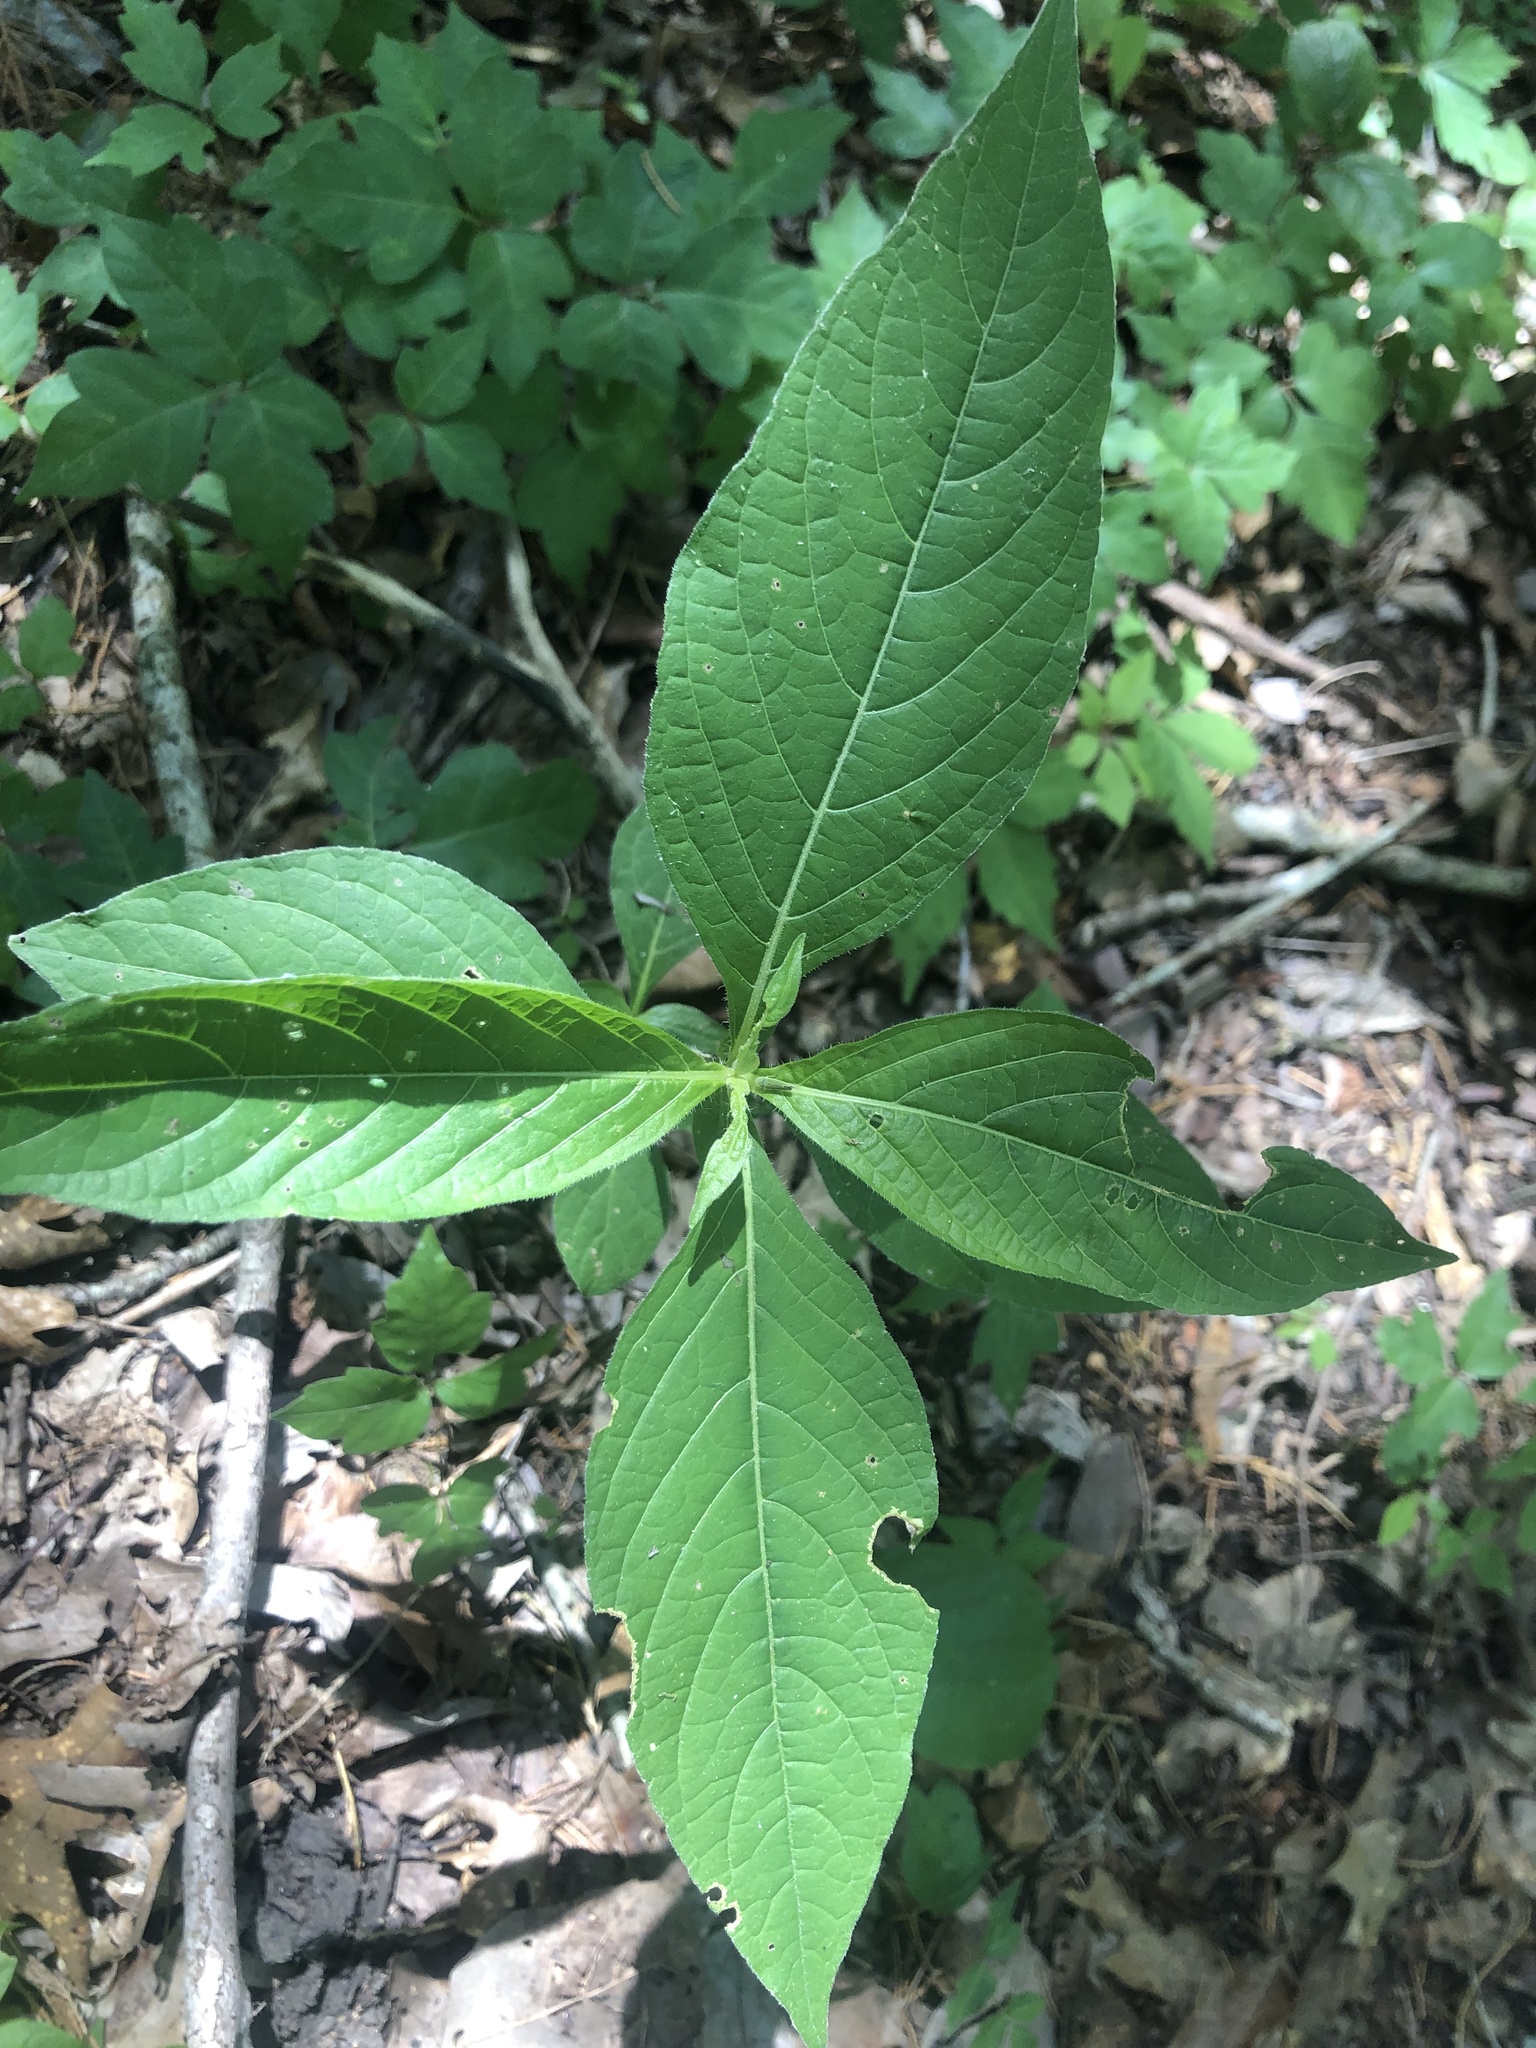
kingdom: Plantae
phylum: Tracheophyta
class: Magnoliopsida
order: Lamiales
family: Acanthaceae
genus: Ruellia
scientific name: Ruellia strepens
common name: Limestone wild petunia
